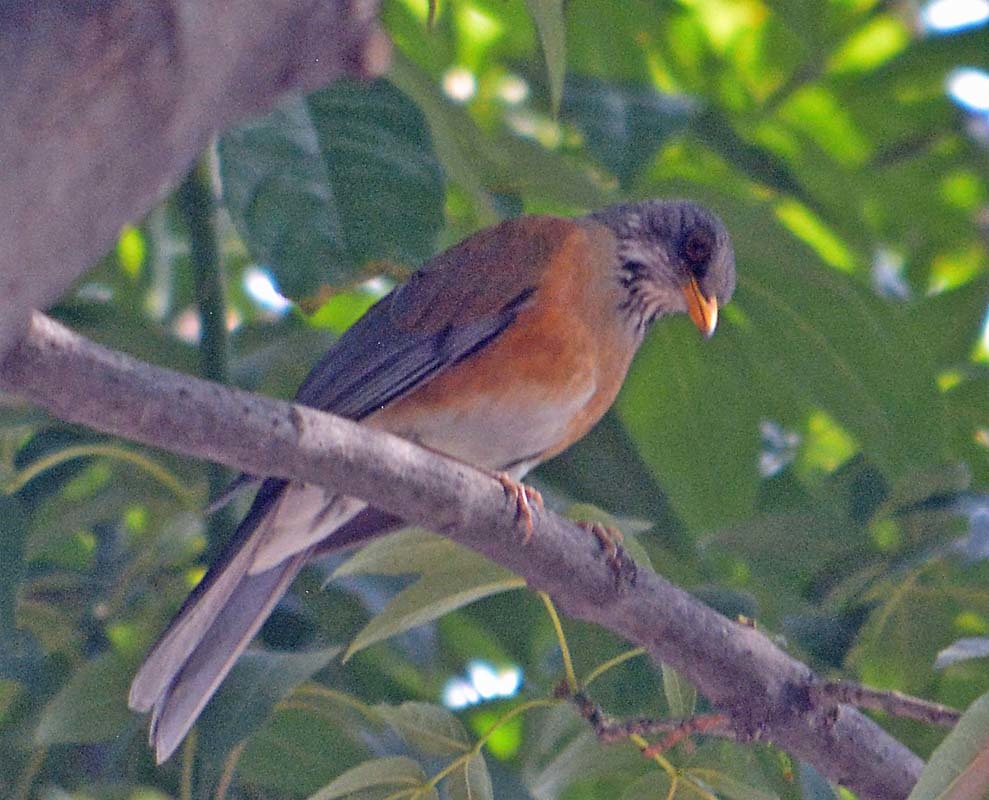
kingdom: Animalia
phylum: Chordata
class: Aves
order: Passeriformes
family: Turdidae
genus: Turdus
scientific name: Turdus rufopalliatus
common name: Rufous-backed robin
